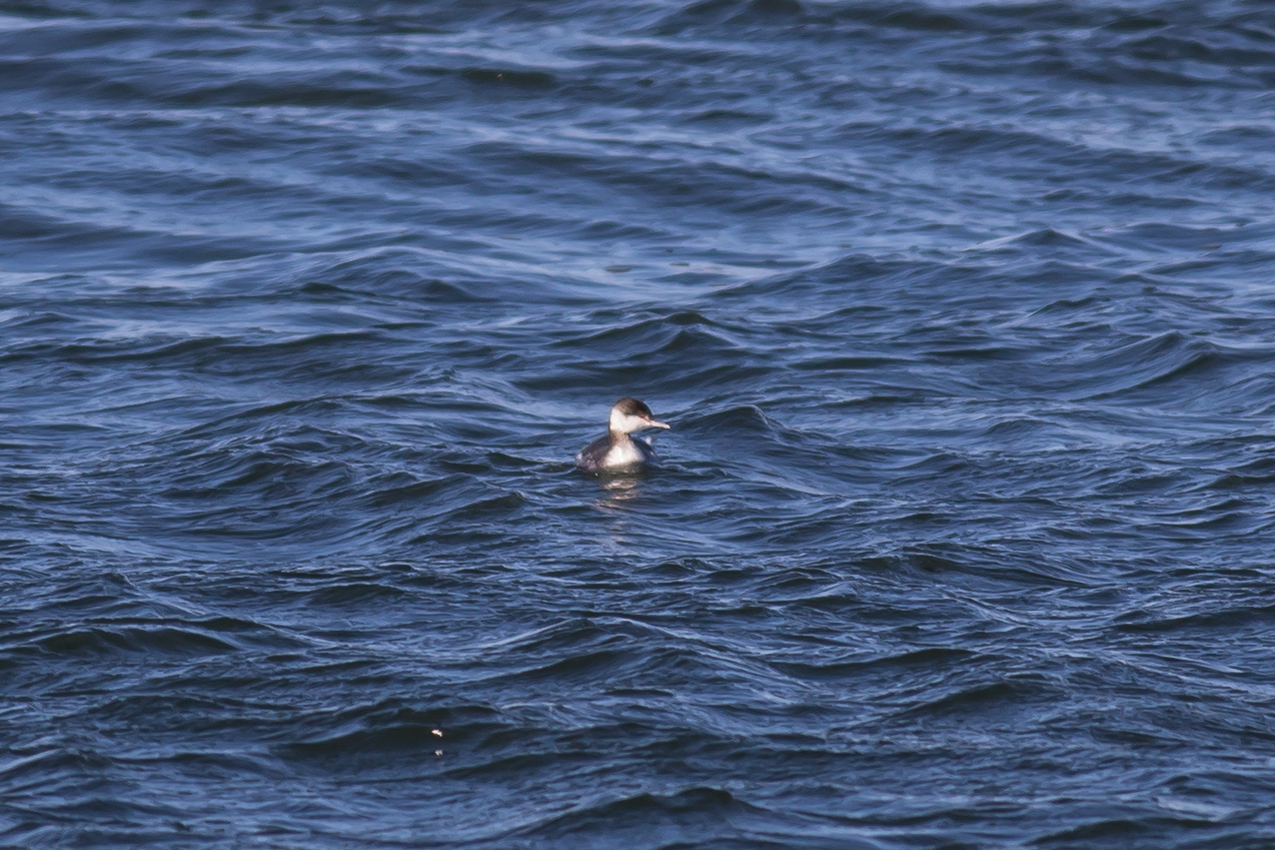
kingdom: Animalia
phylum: Chordata
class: Aves
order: Podicipediformes
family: Podicipedidae
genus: Podiceps
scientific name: Podiceps auritus
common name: Horned grebe
